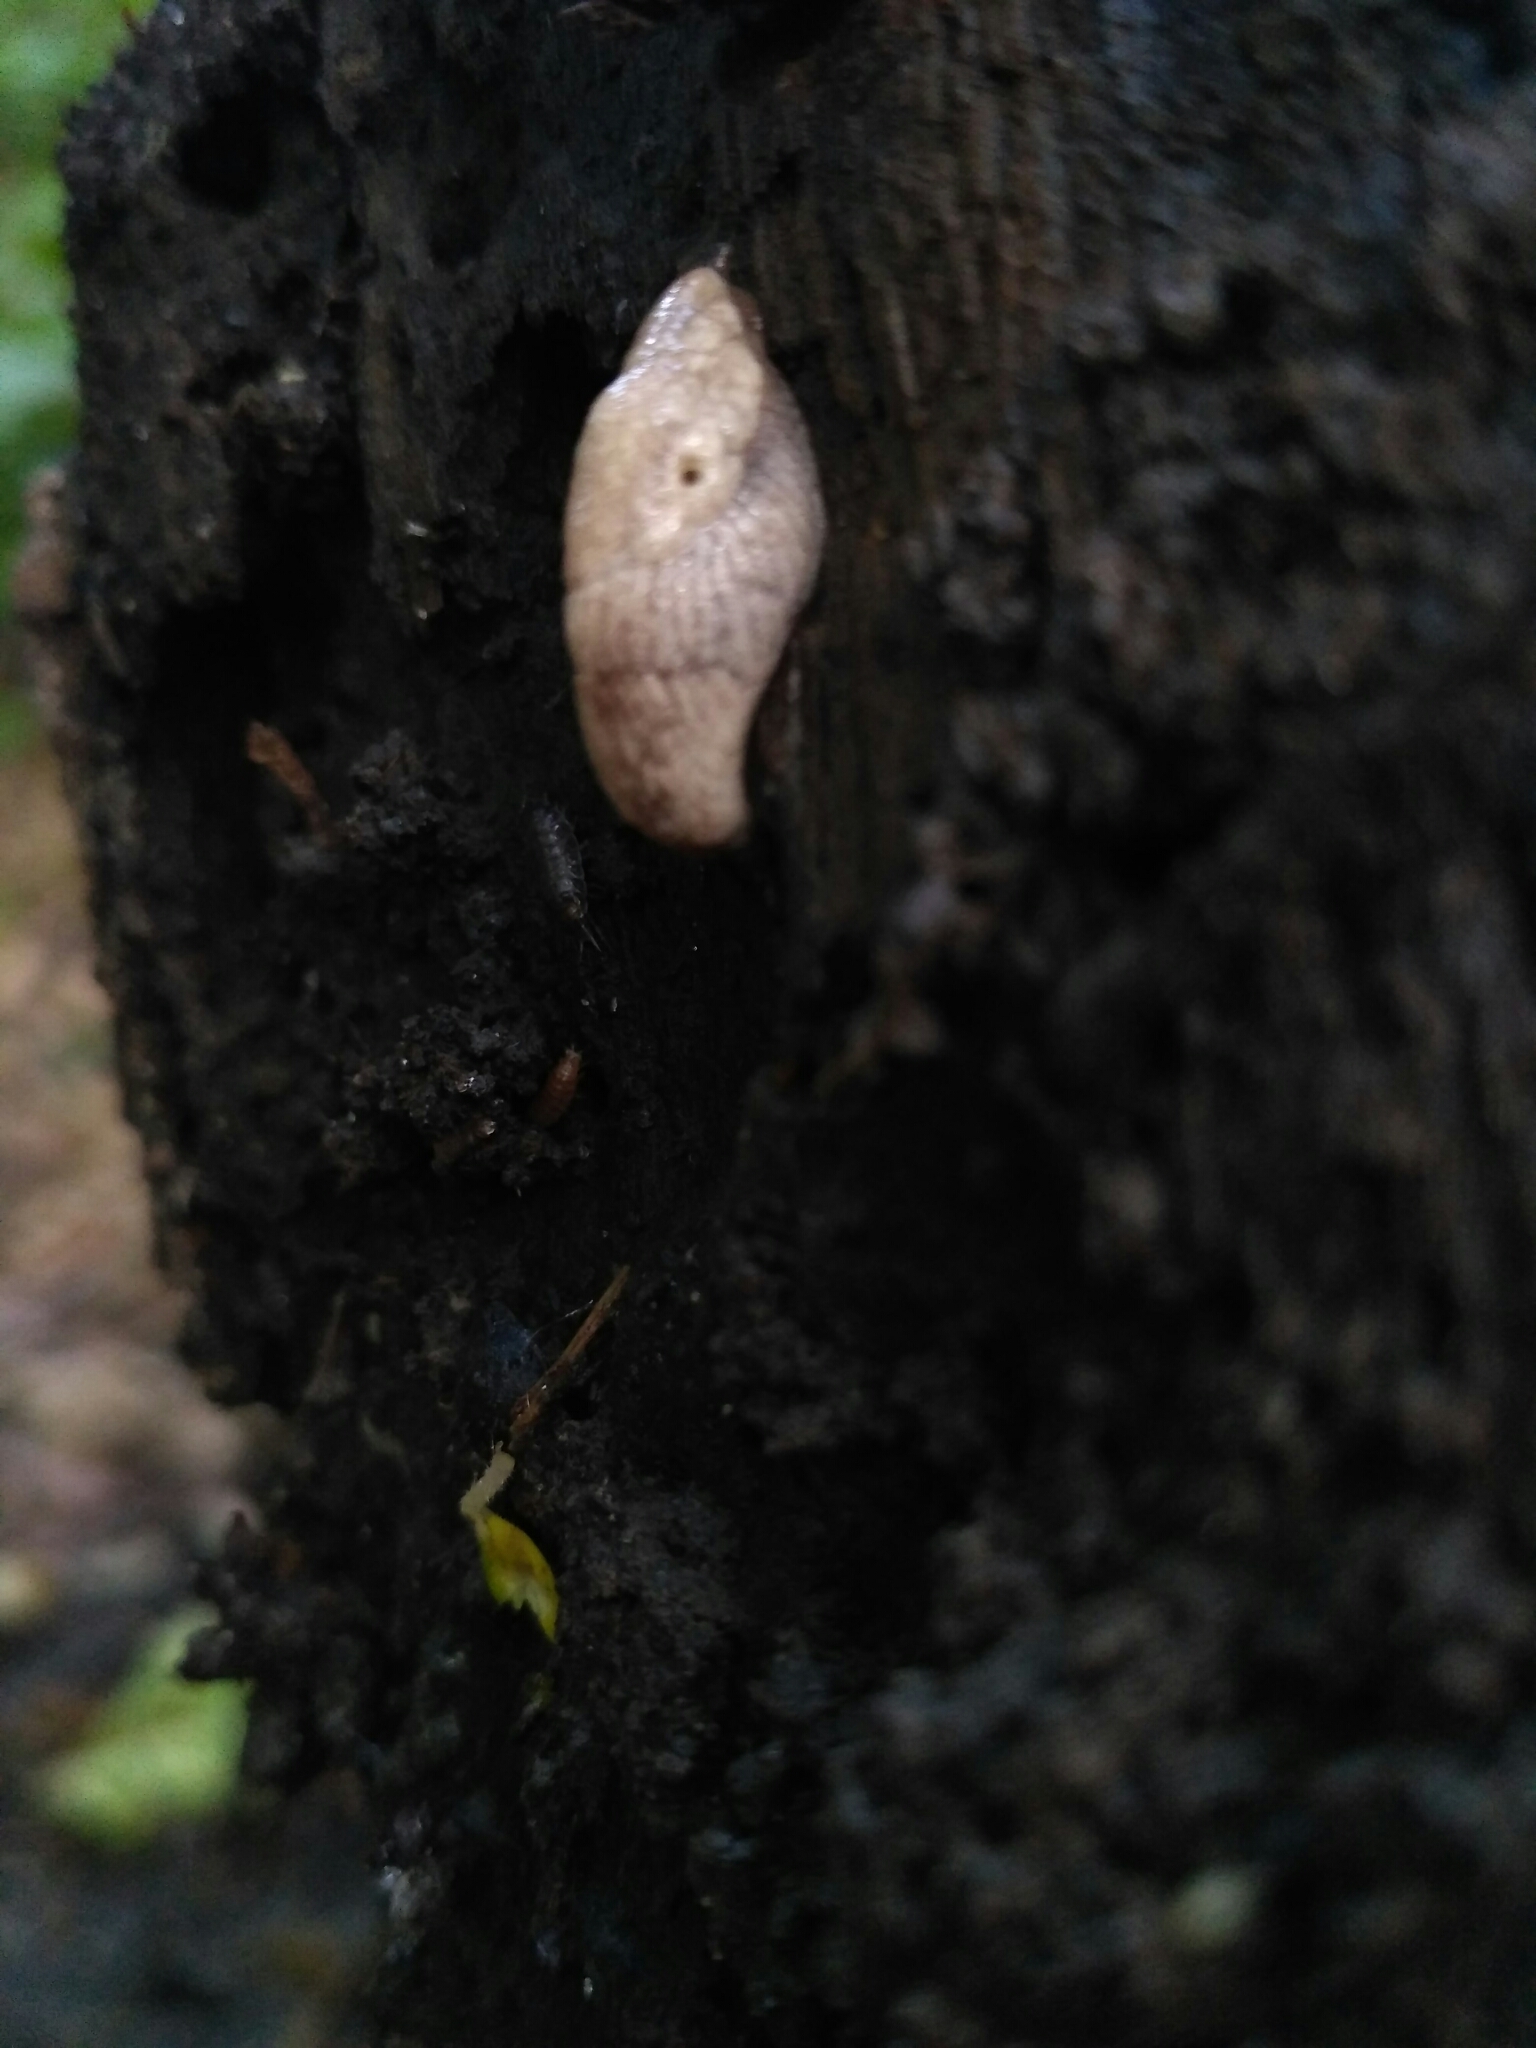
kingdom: Animalia
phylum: Mollusca
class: Gastropoda
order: Stylommatophora
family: Agriolimacidae
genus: Deroceras
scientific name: Deroceras reticulatum
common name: Gray field slug
